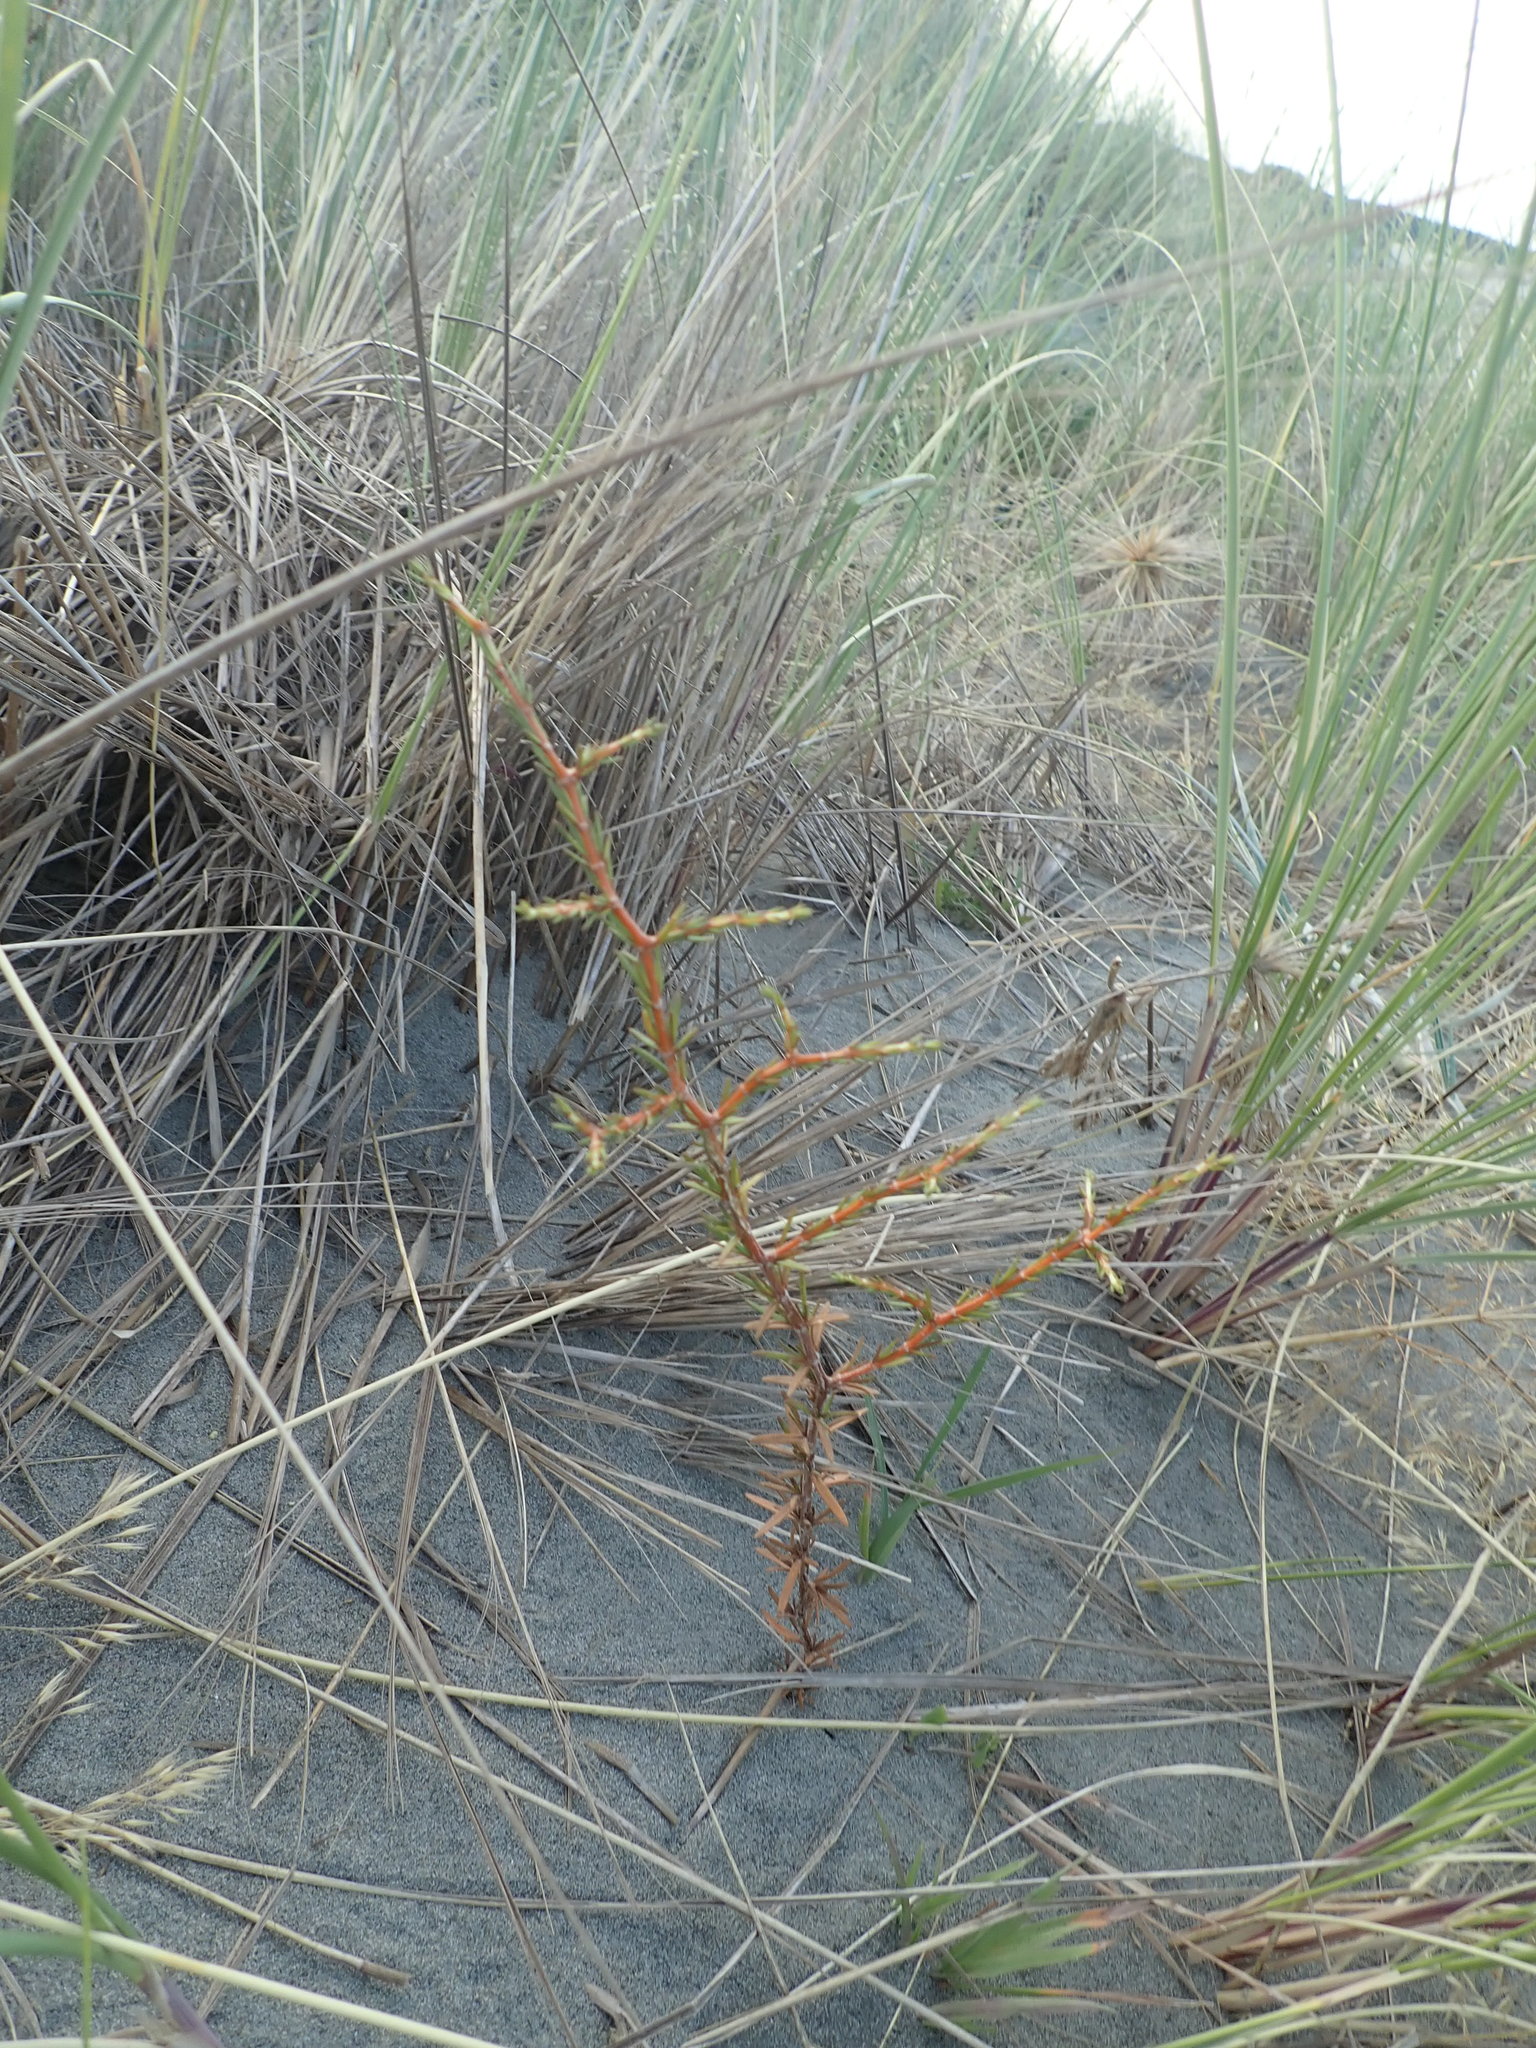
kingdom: Plantae
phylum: Tracheophyta
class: Magnoliopsida
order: Gentianales
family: Rubiaceae
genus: Coprosma
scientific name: Coprosma acerosa
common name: Sand coprosma
